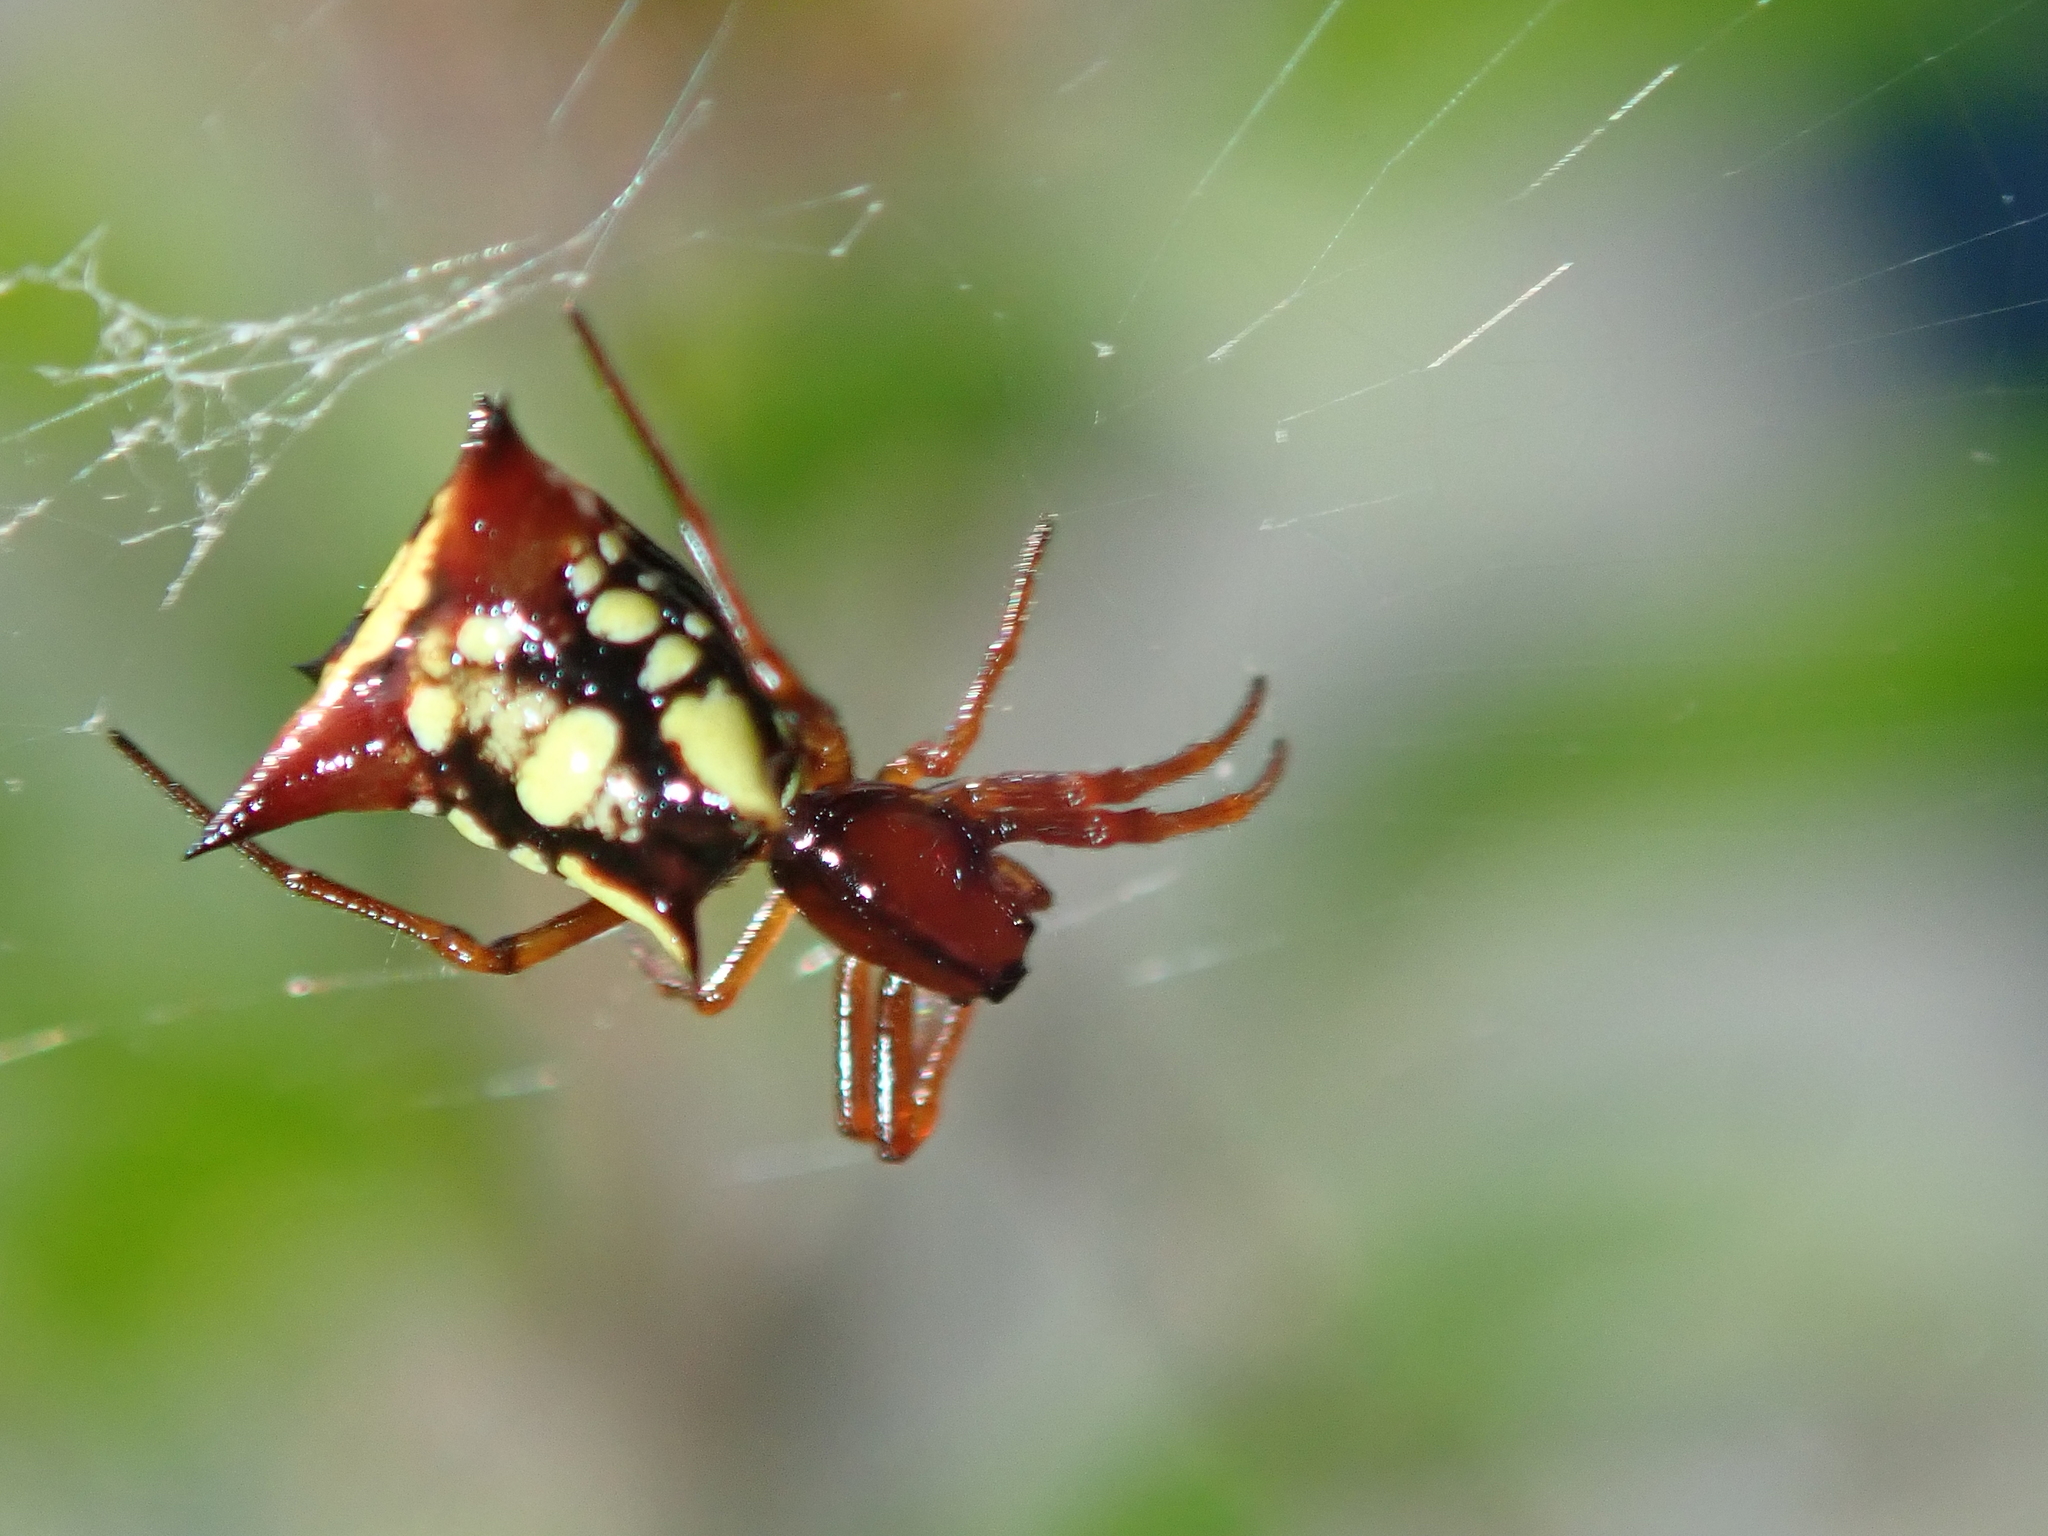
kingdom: Animalia
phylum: Arthropoda
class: Arachnida
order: Araneae
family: Araneidae
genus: Micrathena
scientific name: Micrathena schenkeli
